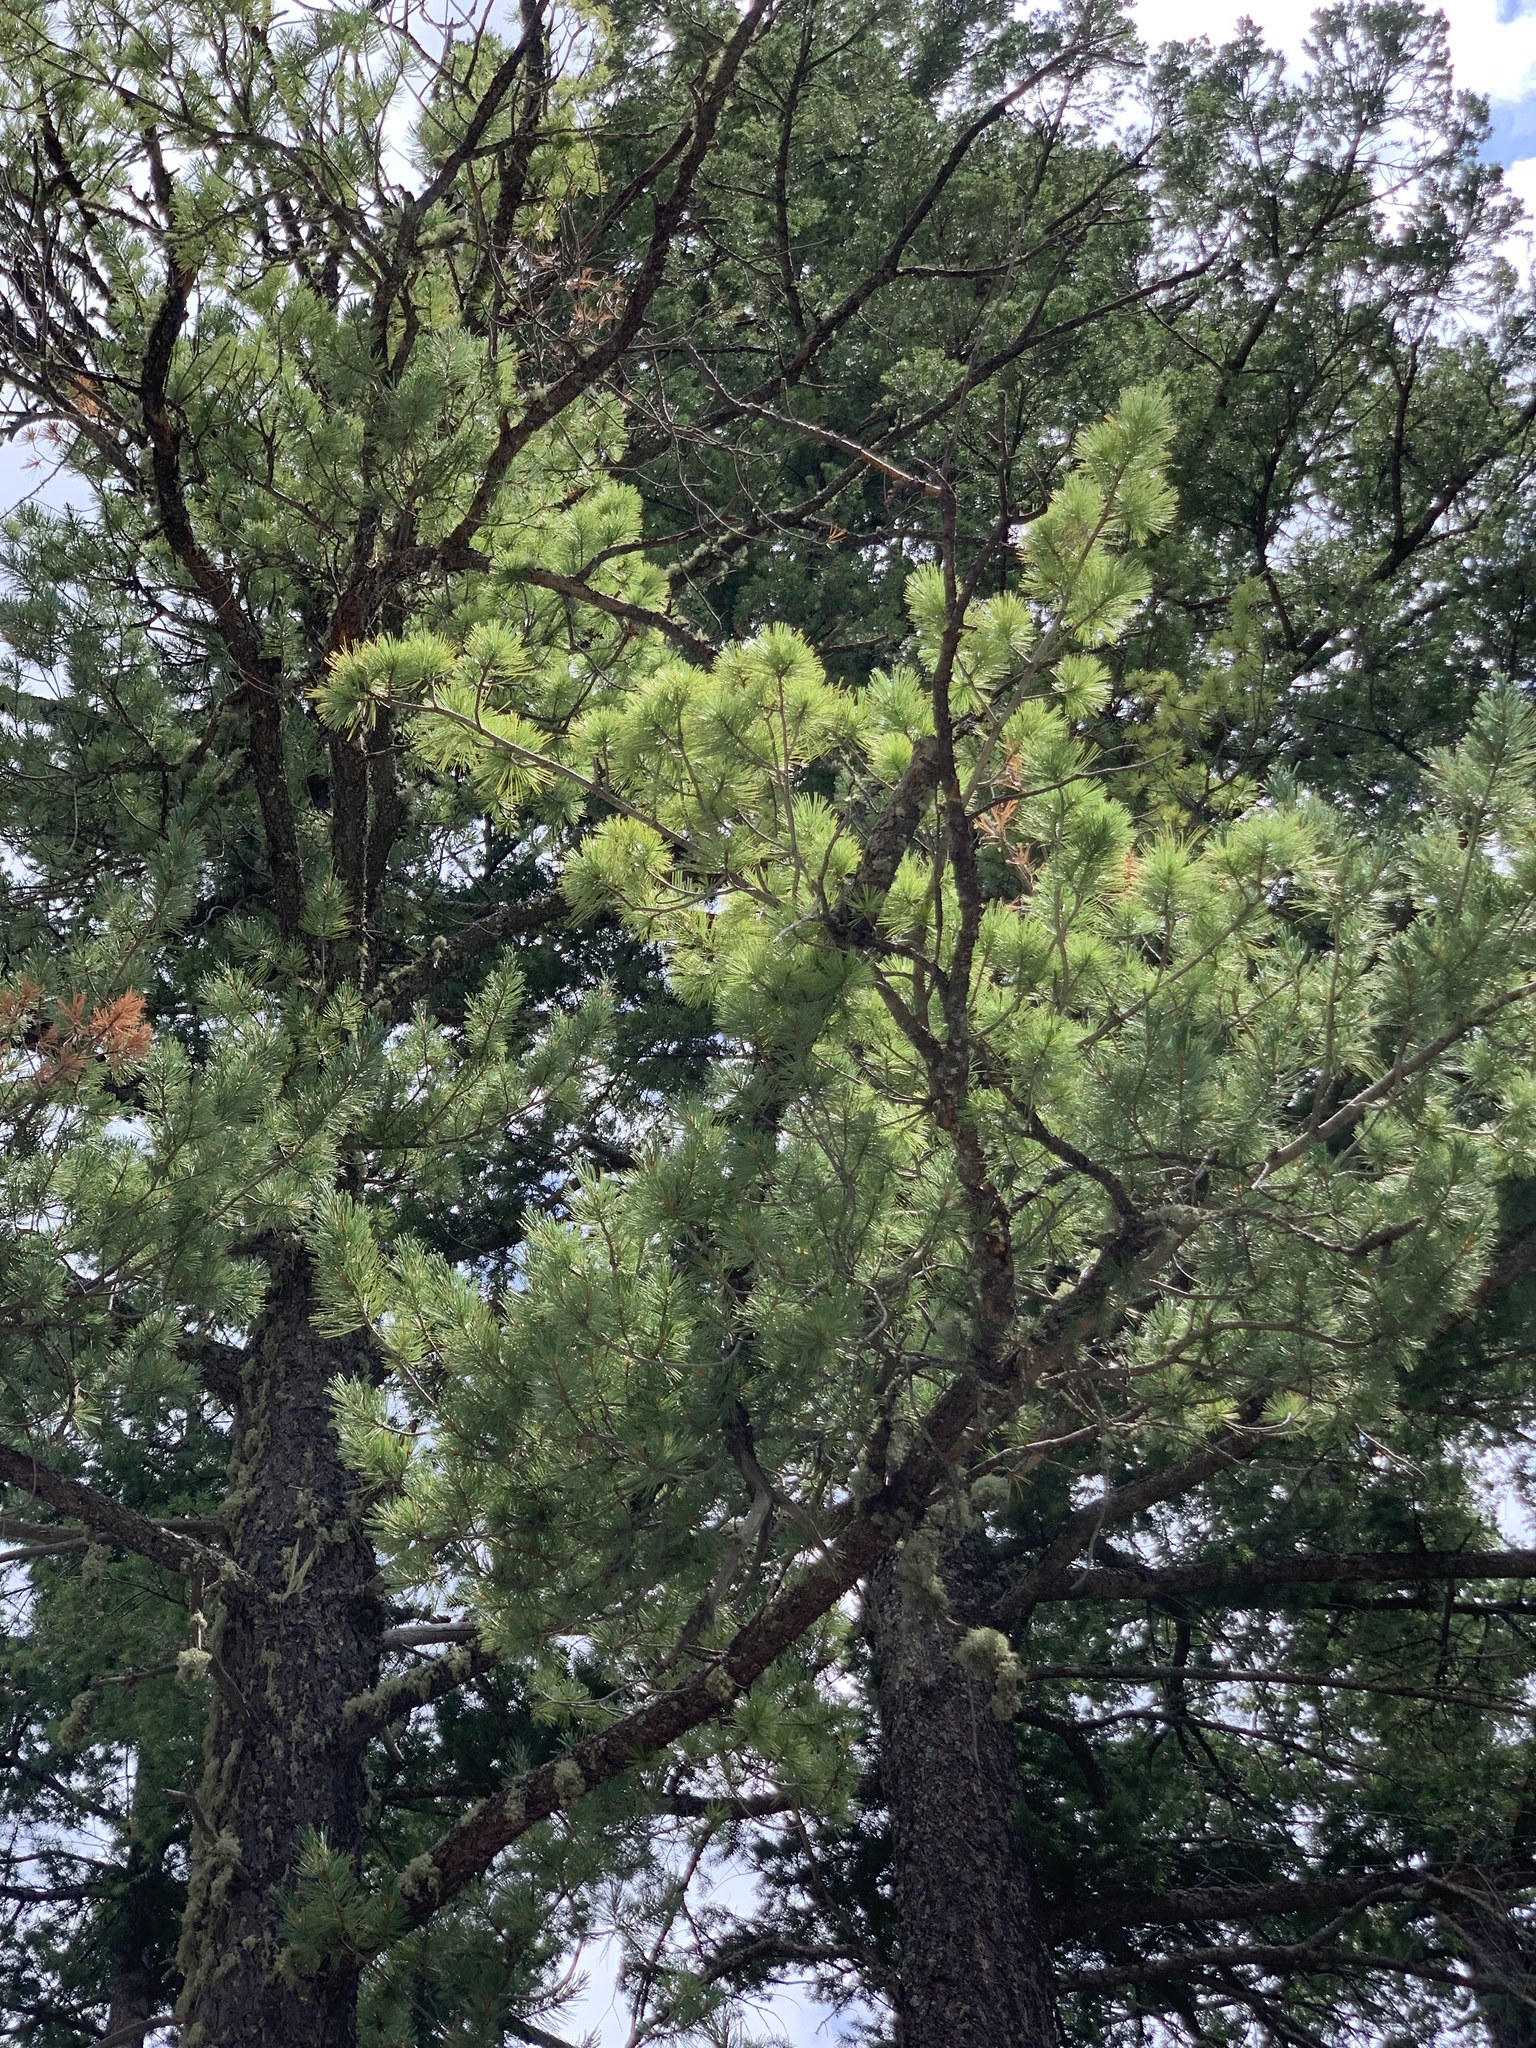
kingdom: Plantae
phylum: Tracheophyta
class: Pinopsida
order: Pinales
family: Pinaceae
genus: Pinus
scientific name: Pinus strobiformis
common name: Southwestern white pine
